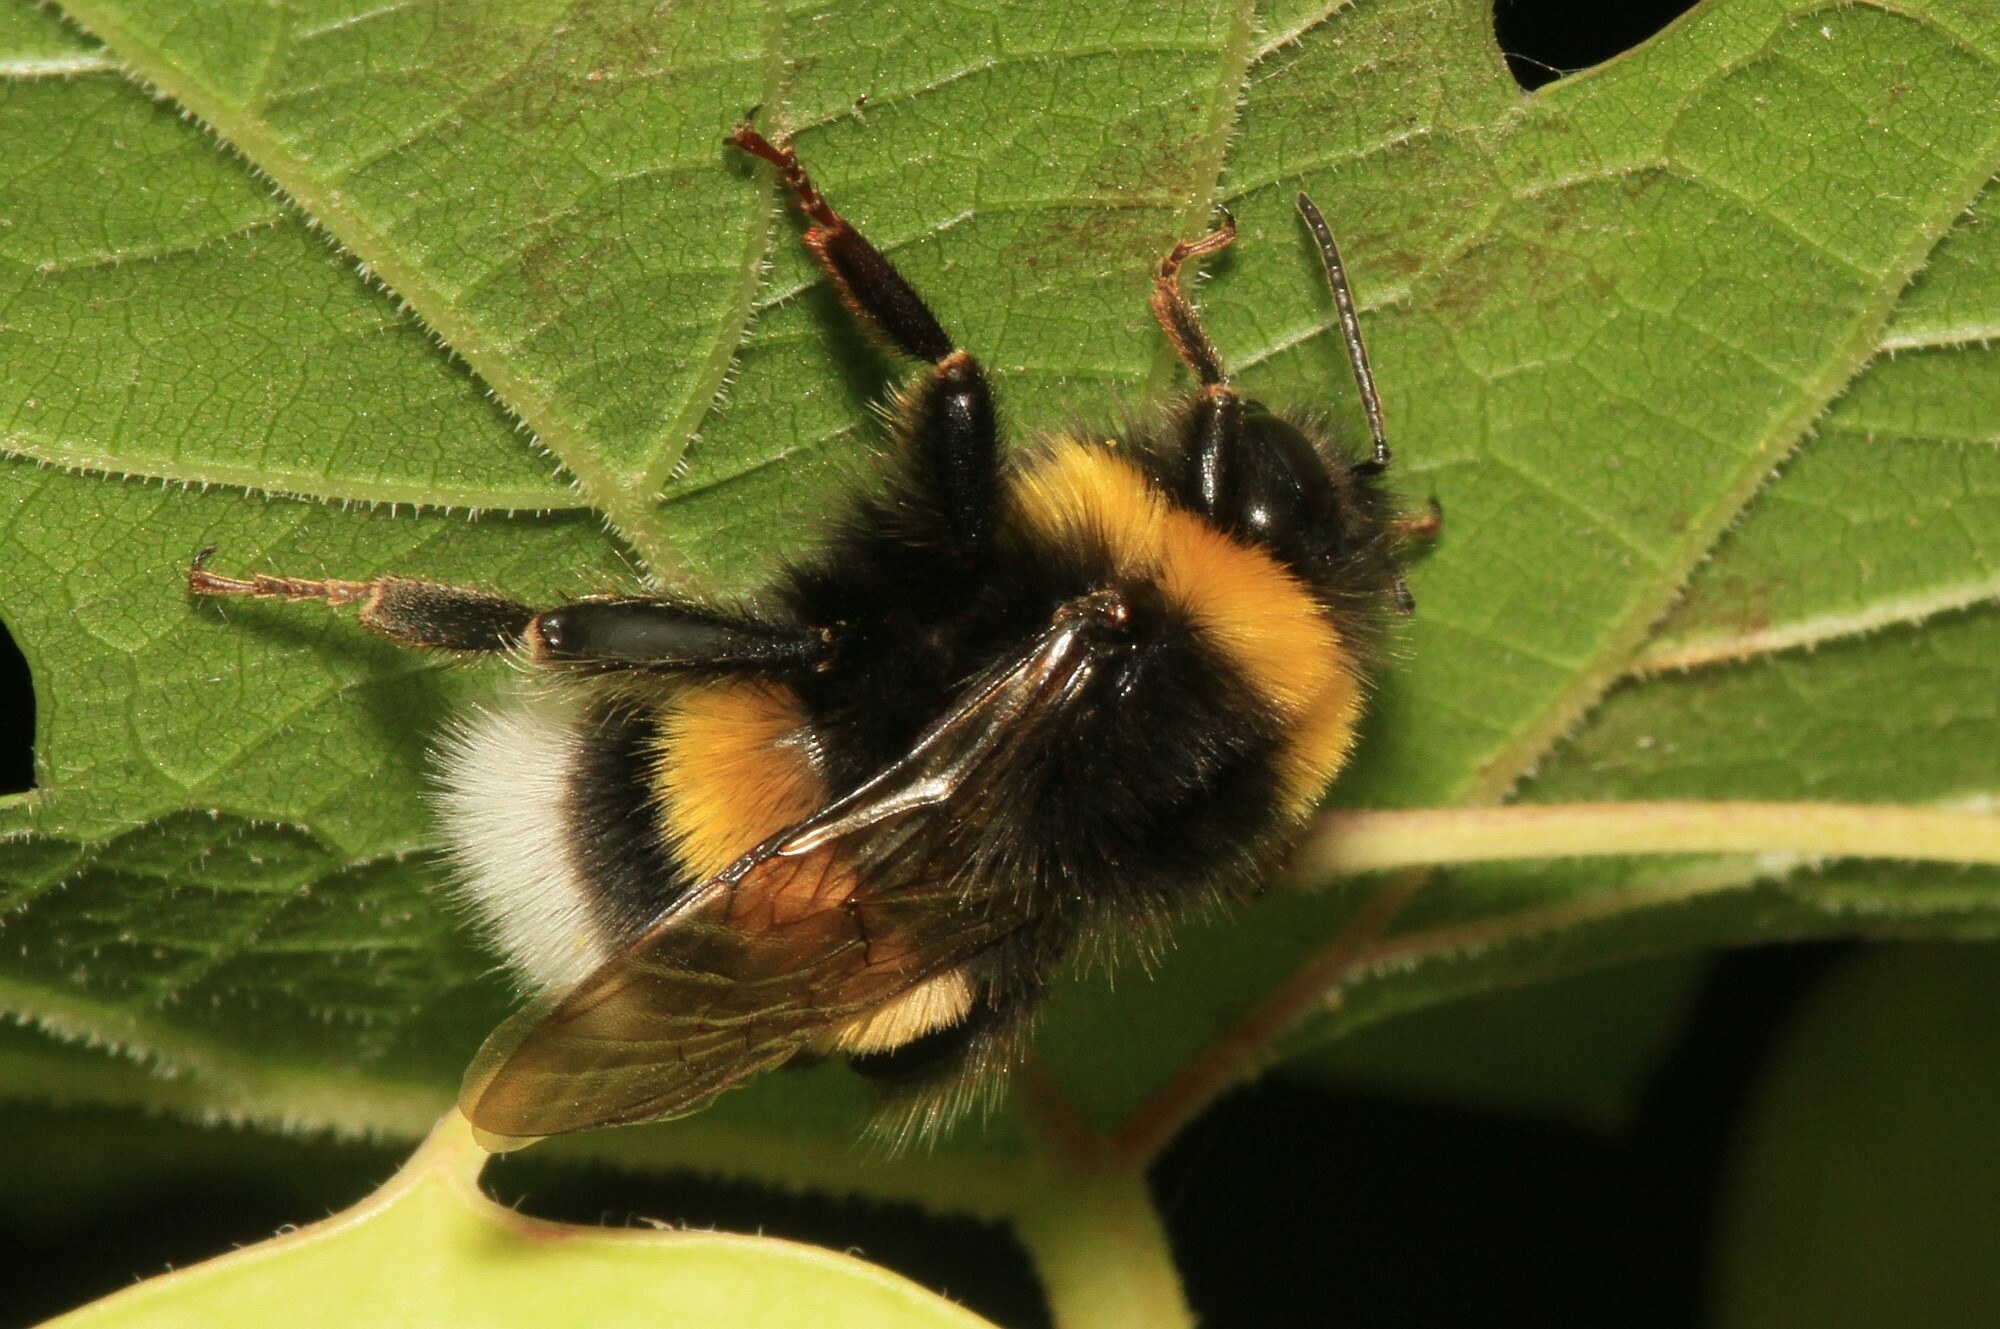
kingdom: Animalia
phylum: Arthropoda
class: Insecta
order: Hymenoptera
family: Apidae
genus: Bombus
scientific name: Bombus terrestris
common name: Buff-tailed bumblebee
